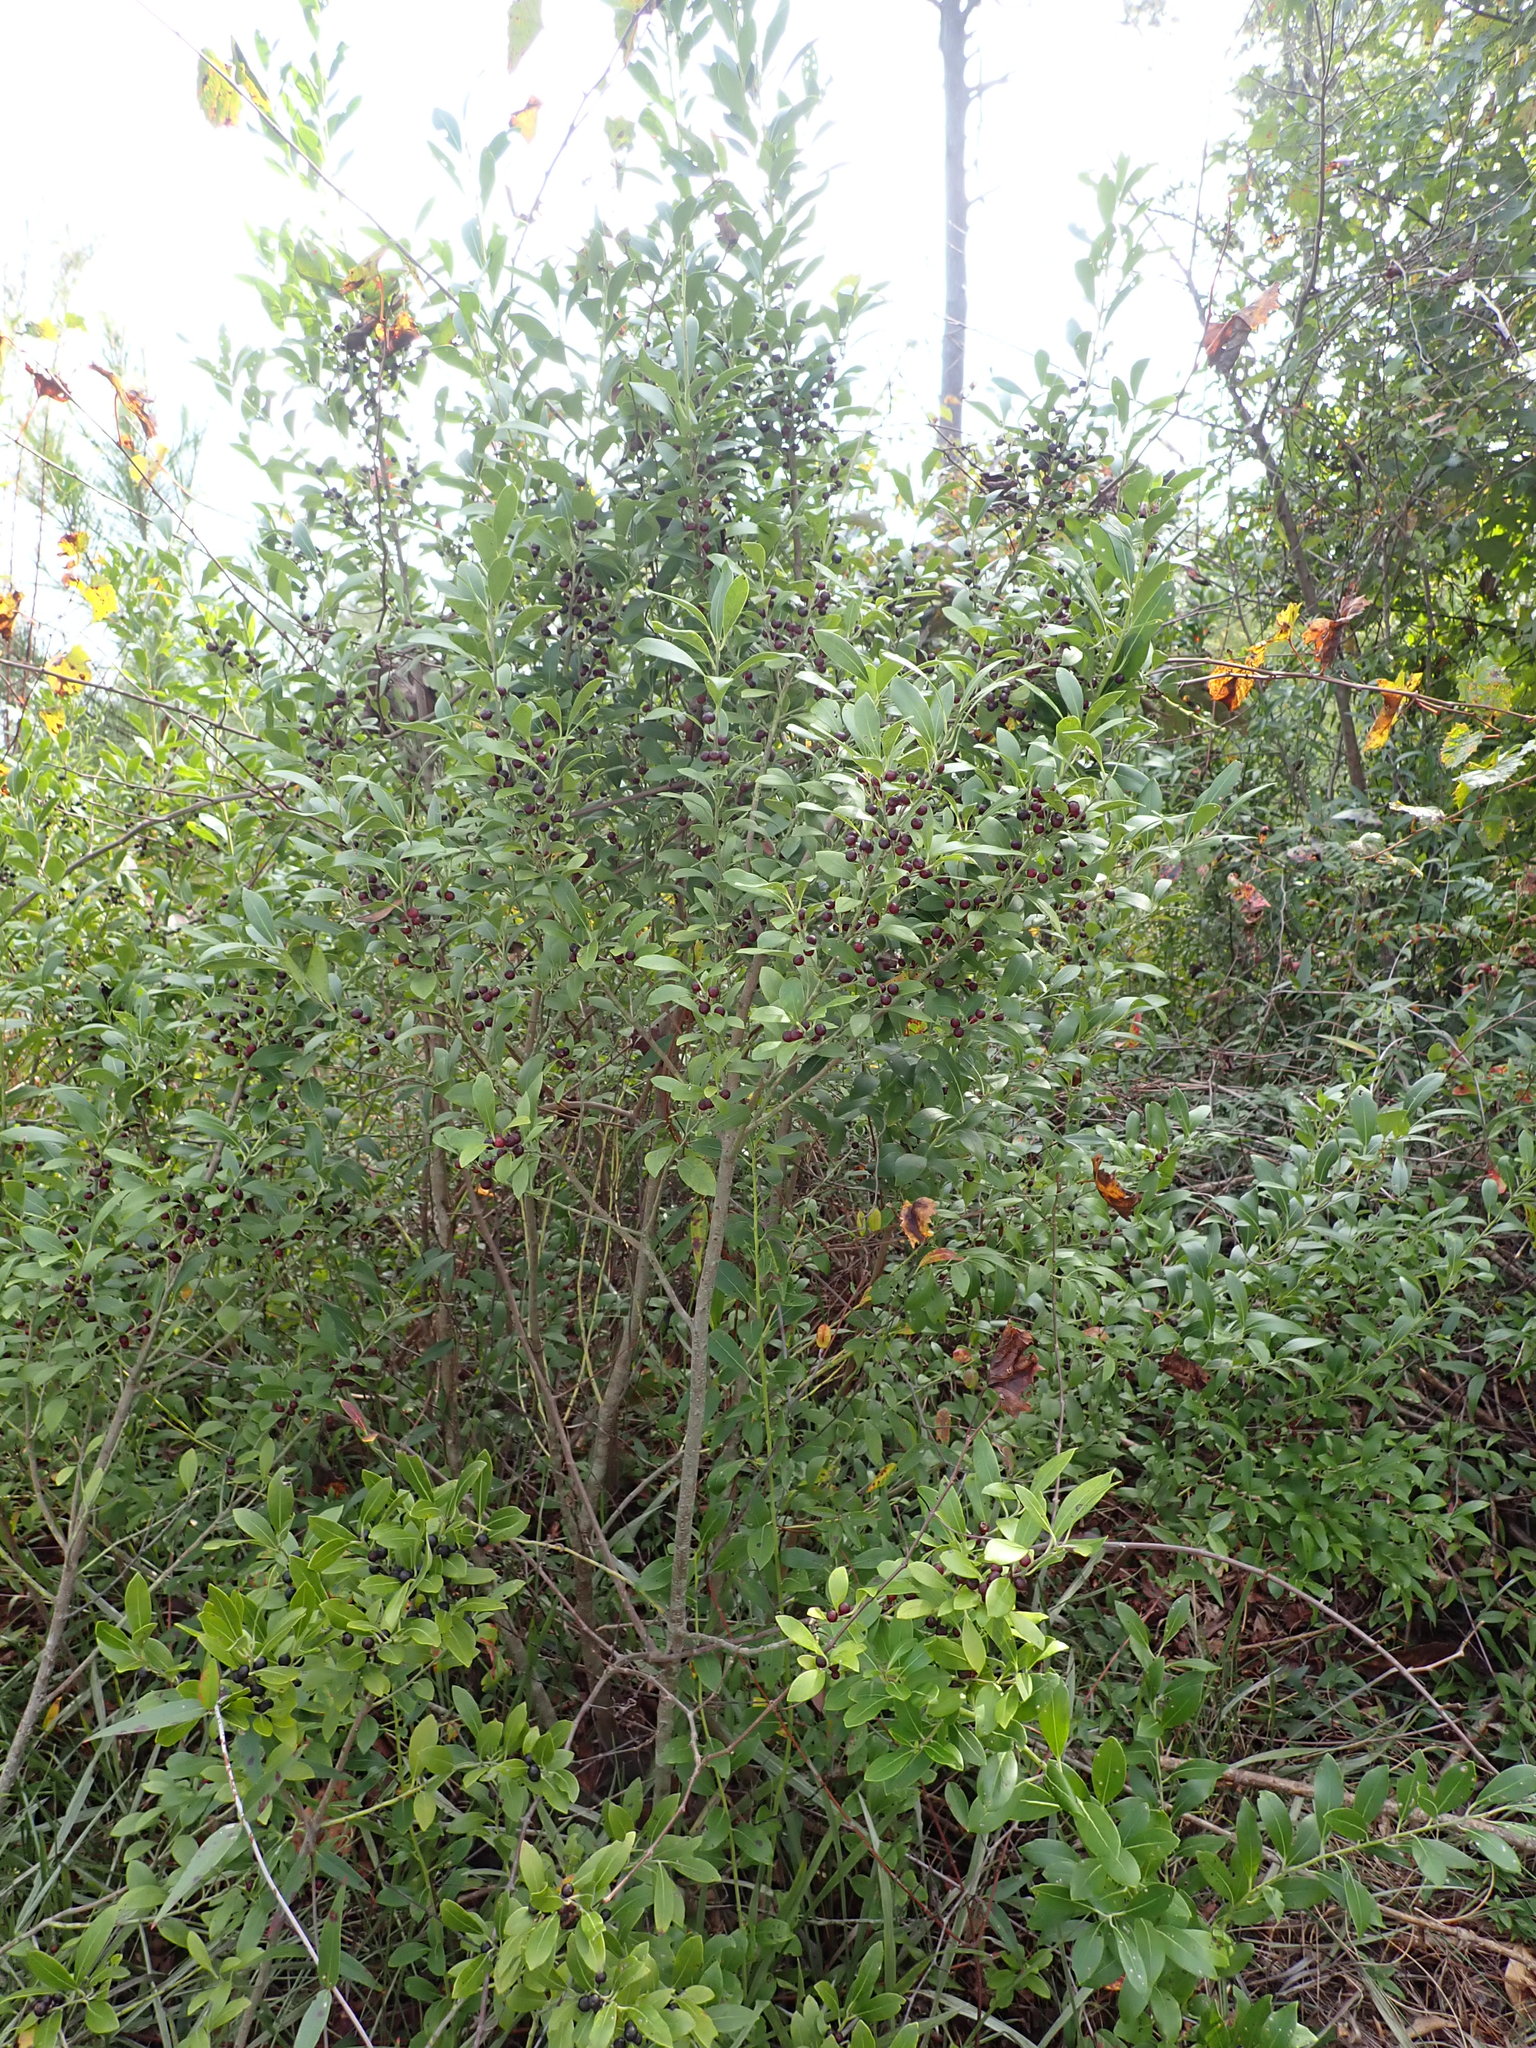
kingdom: Plantae
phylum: Tracheophyta
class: Magnoliopsida
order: Aquifoliales
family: Aquifoliaceae
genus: Ilex
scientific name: Ilex glabra
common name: Bitter gallberry
